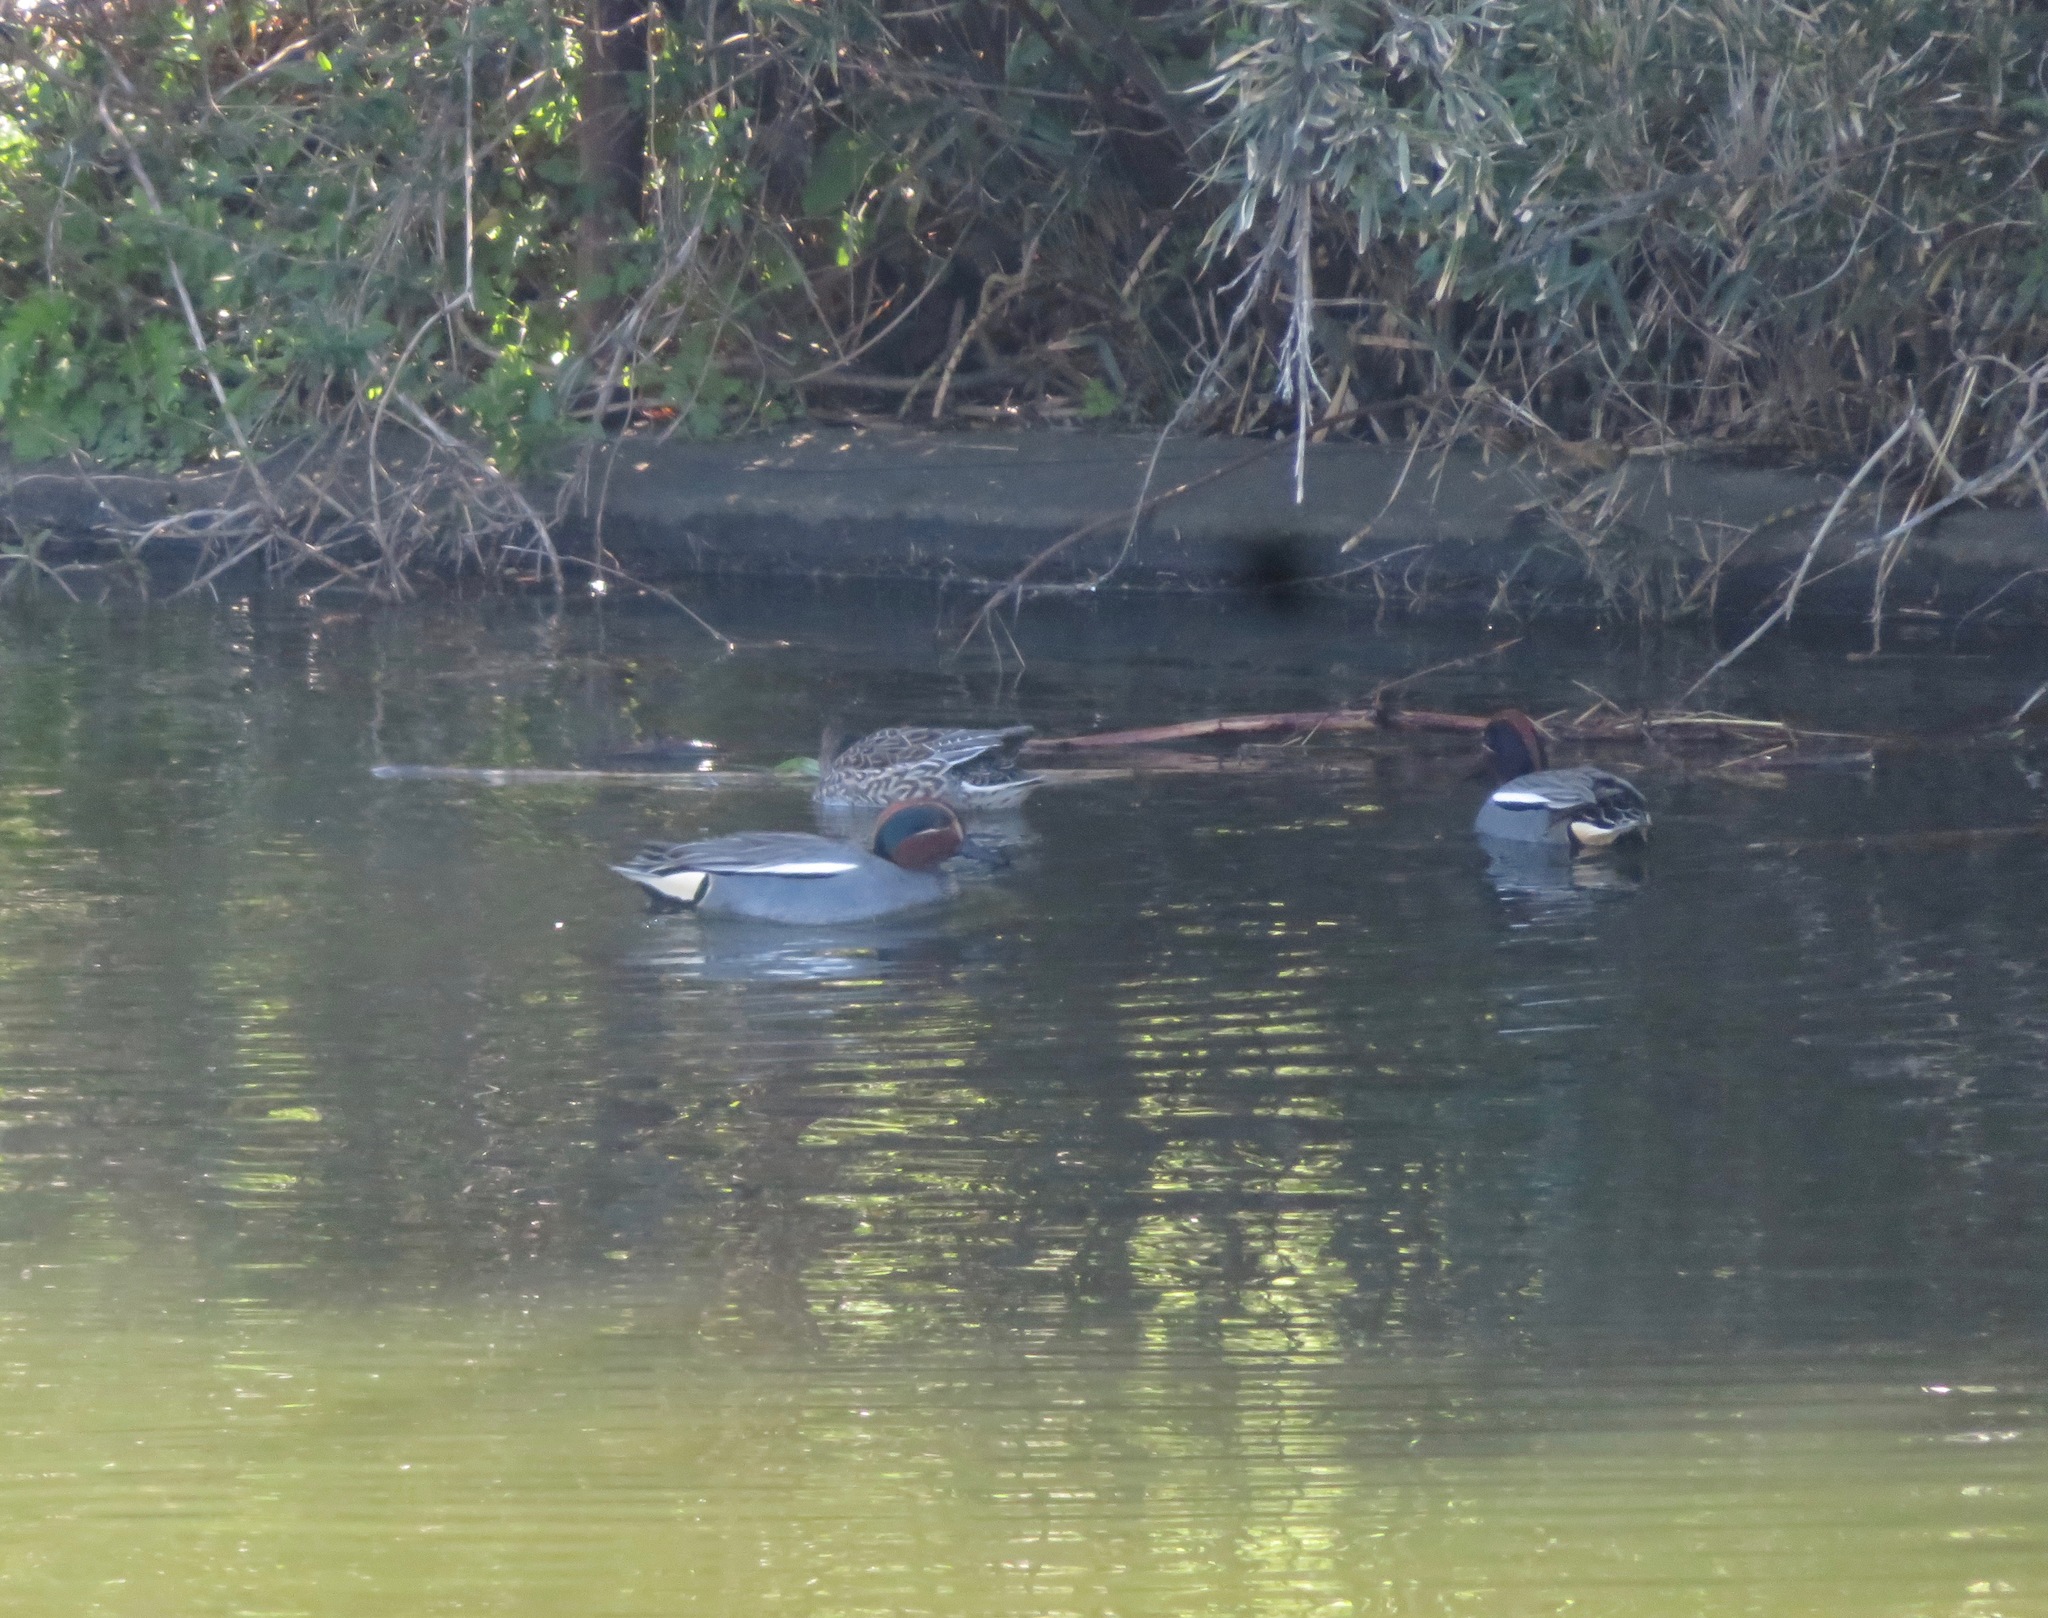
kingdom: Animalia
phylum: Chordata
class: Aves
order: Anseriformes
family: Anatidae
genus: Anas
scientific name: Anas crecca
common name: Eurasian teal
